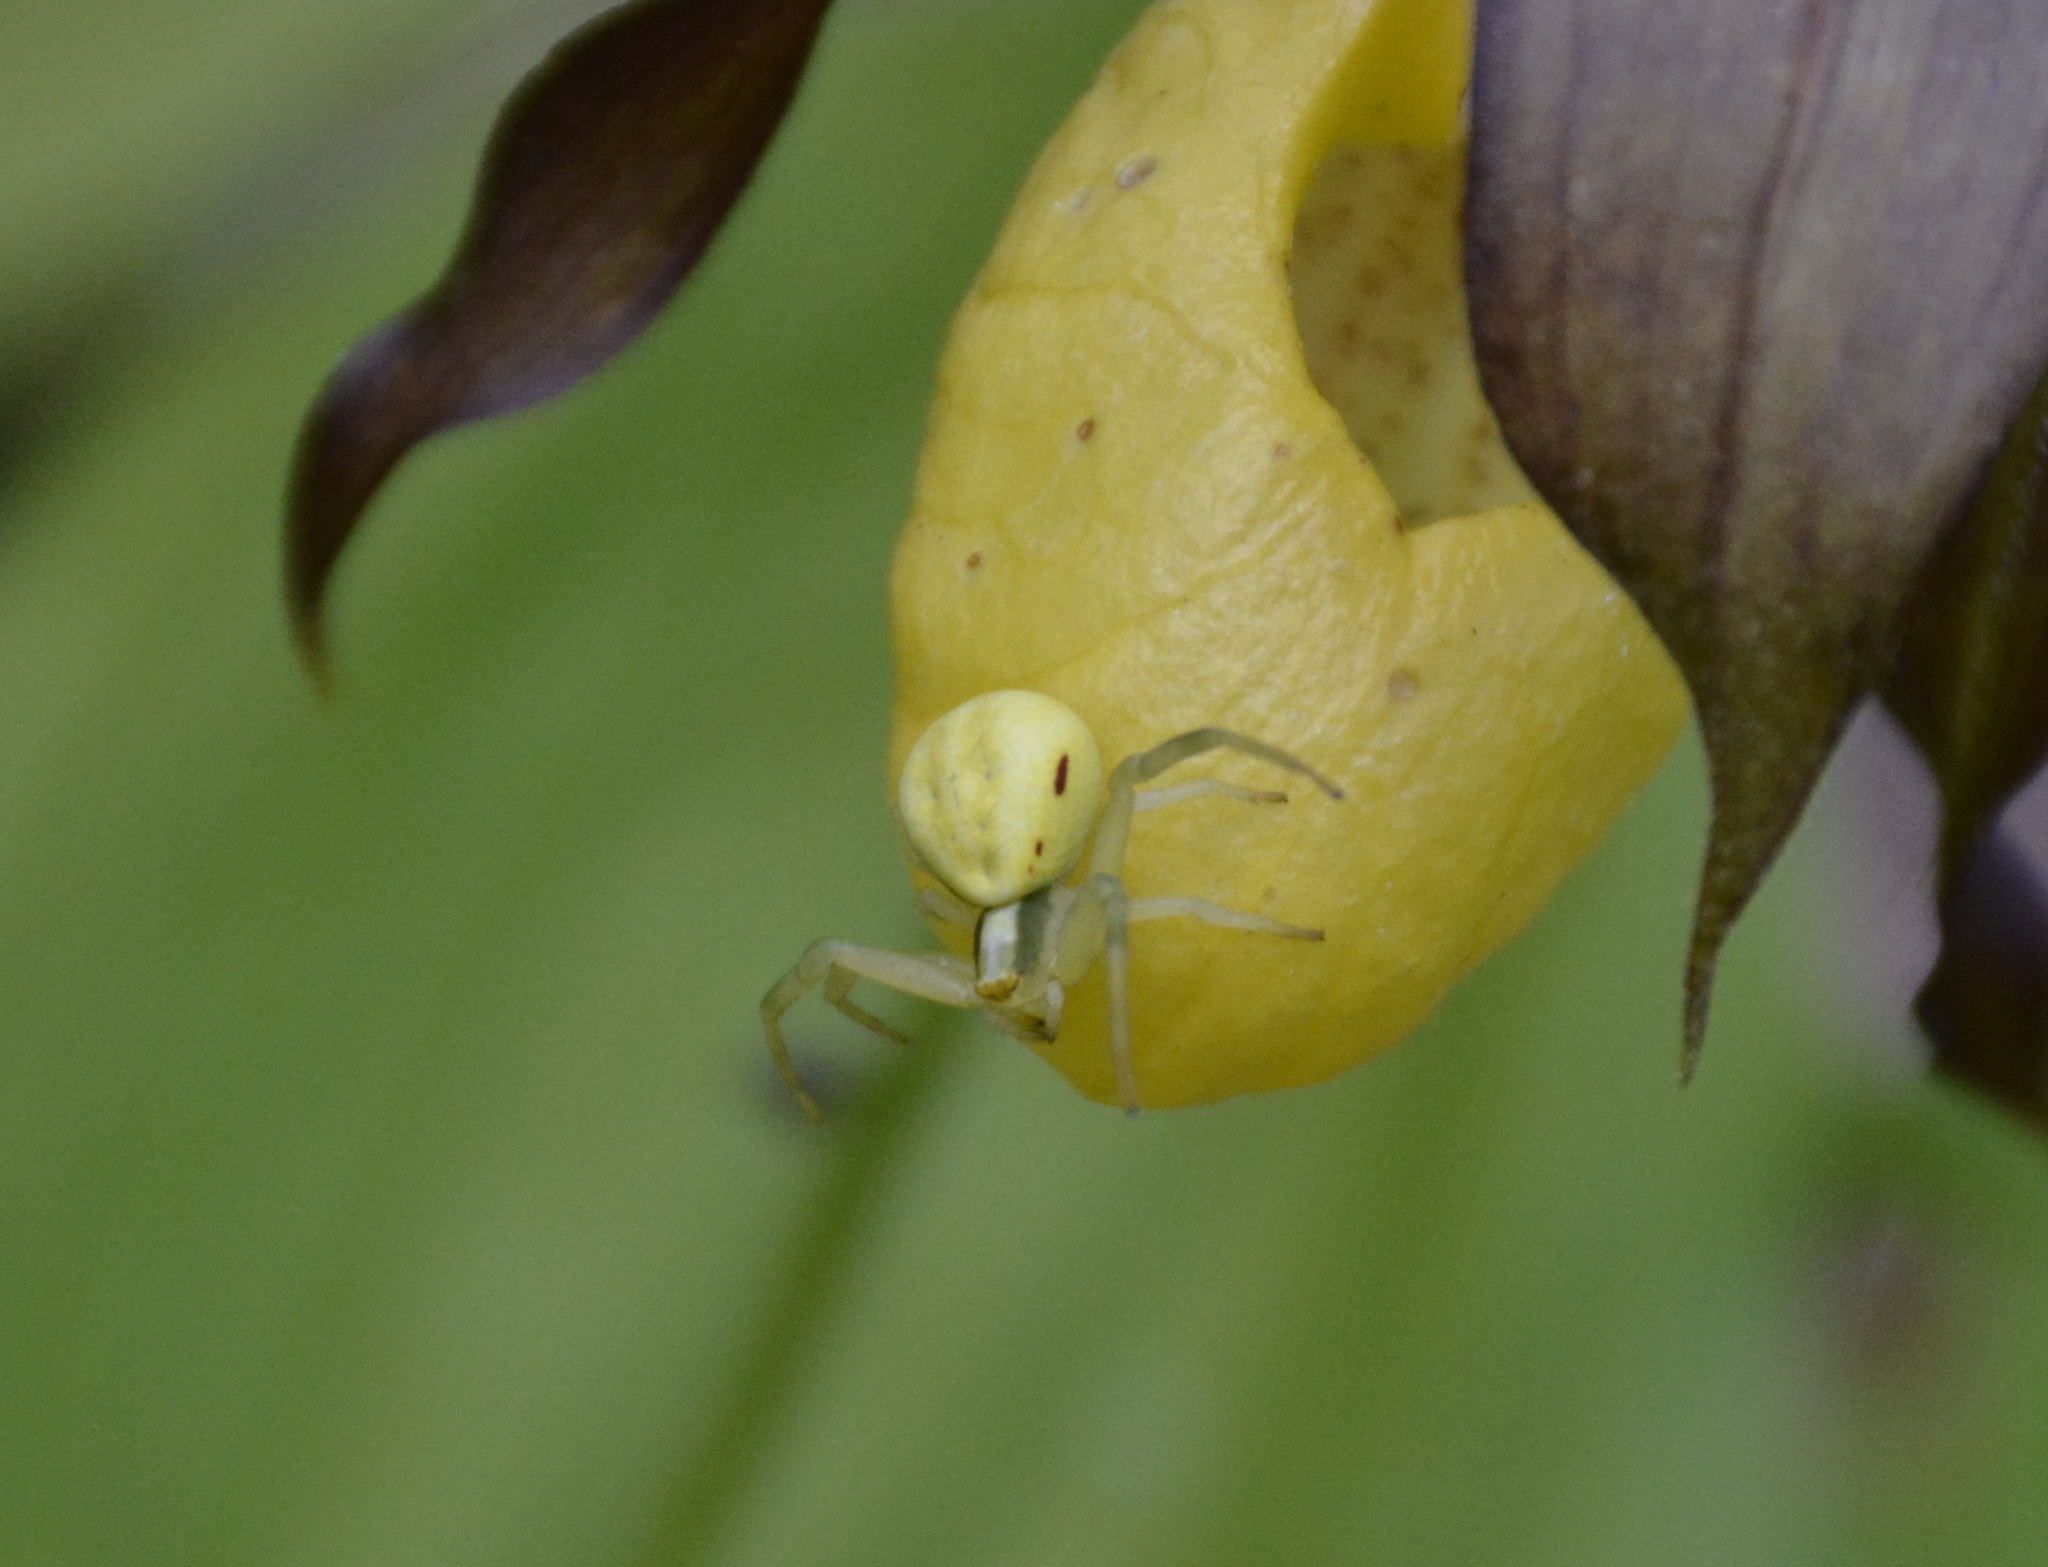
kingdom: Animalia
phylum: Arthropoda
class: Arachnida
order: Araneae
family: Thomisidae
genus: Misumena
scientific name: Misumena vatia
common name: Goldenrod crab spider
